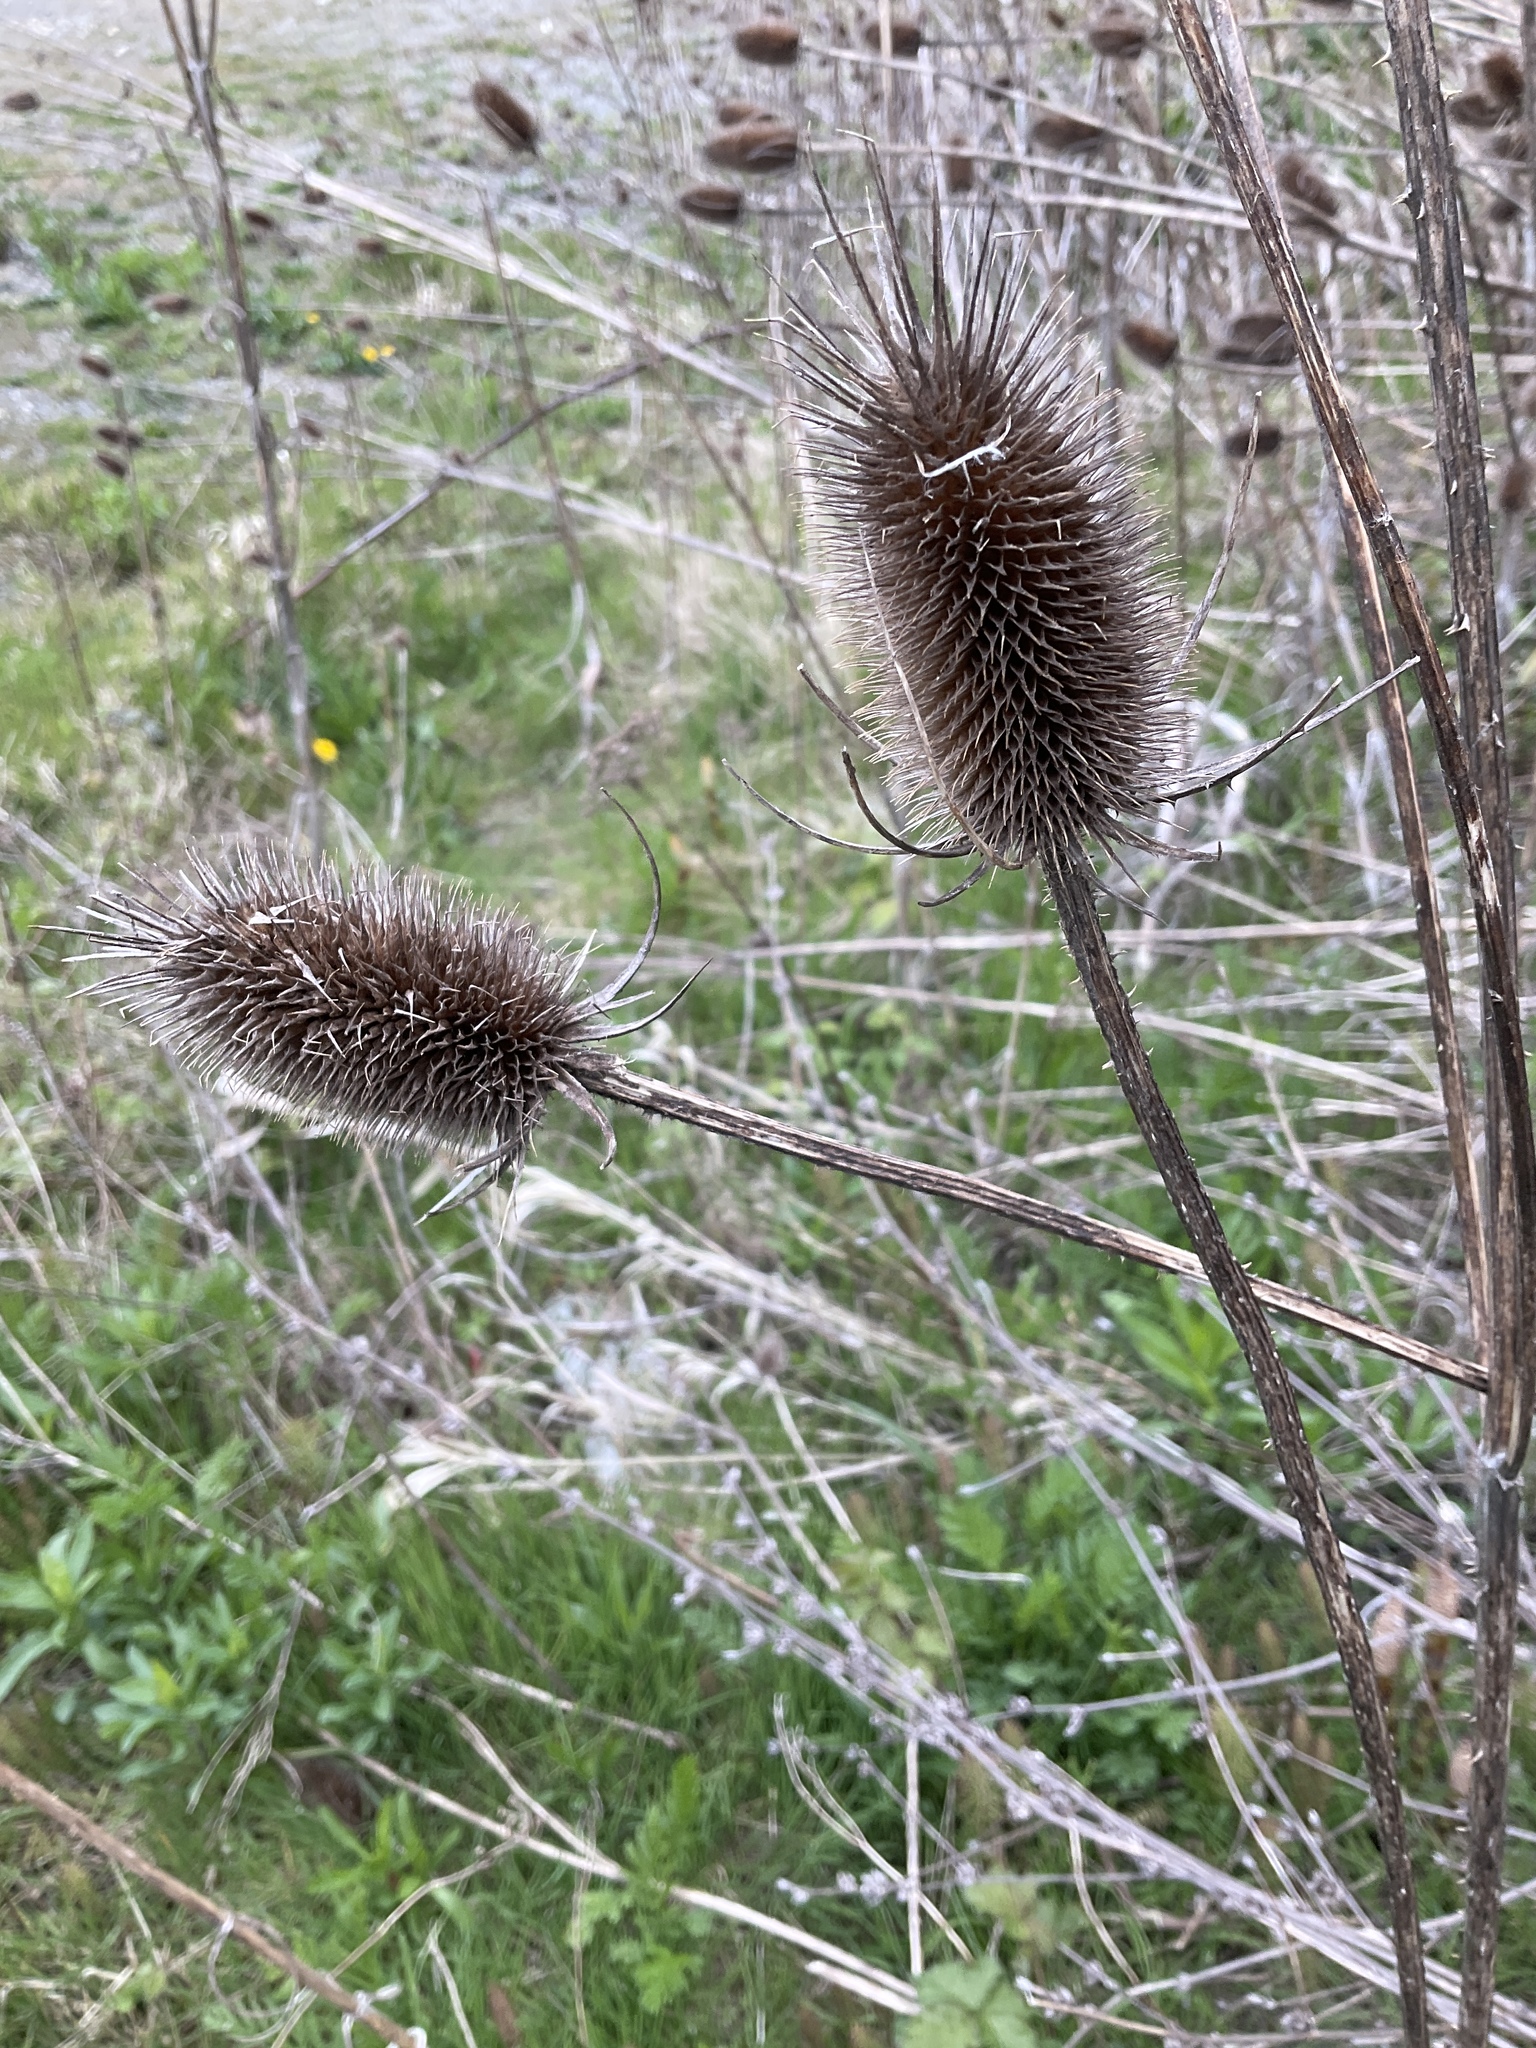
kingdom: Plantae
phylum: Tracheophyta
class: Magnoliopsida
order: Dipsacales
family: Caprifoliaceae
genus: Dipsacus
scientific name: Dipsacus fullonum
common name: Teasel
